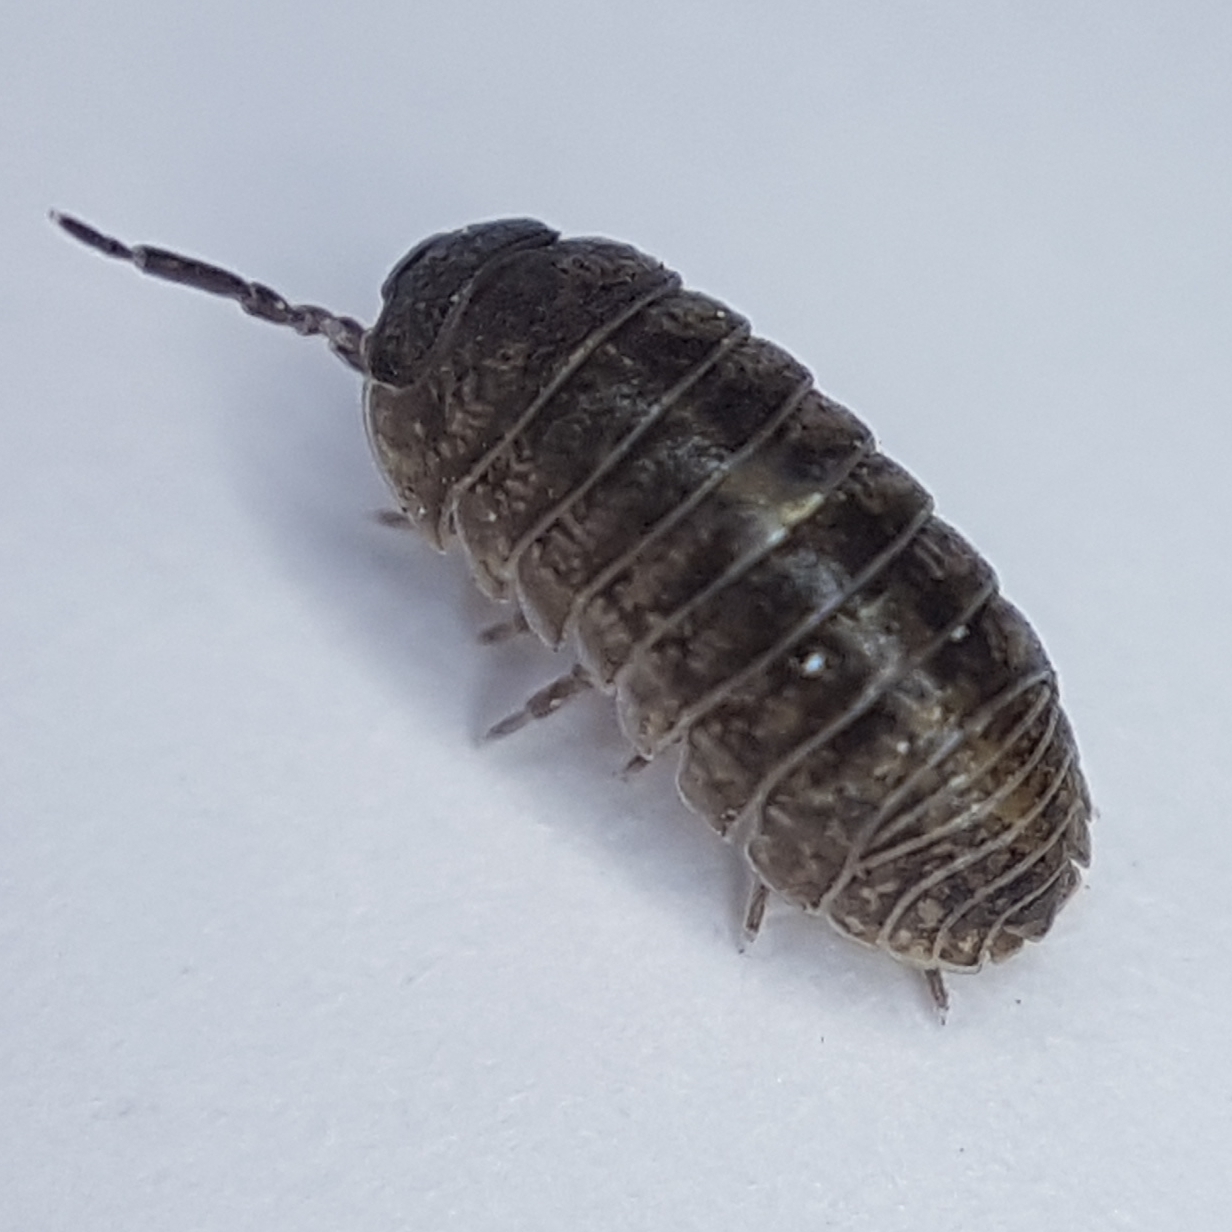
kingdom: Animalia
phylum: Arthropoda
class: Malacostraca
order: Isopoda
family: Armadillidiidae
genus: Armadillidium
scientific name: Armadillidium arcangelii
